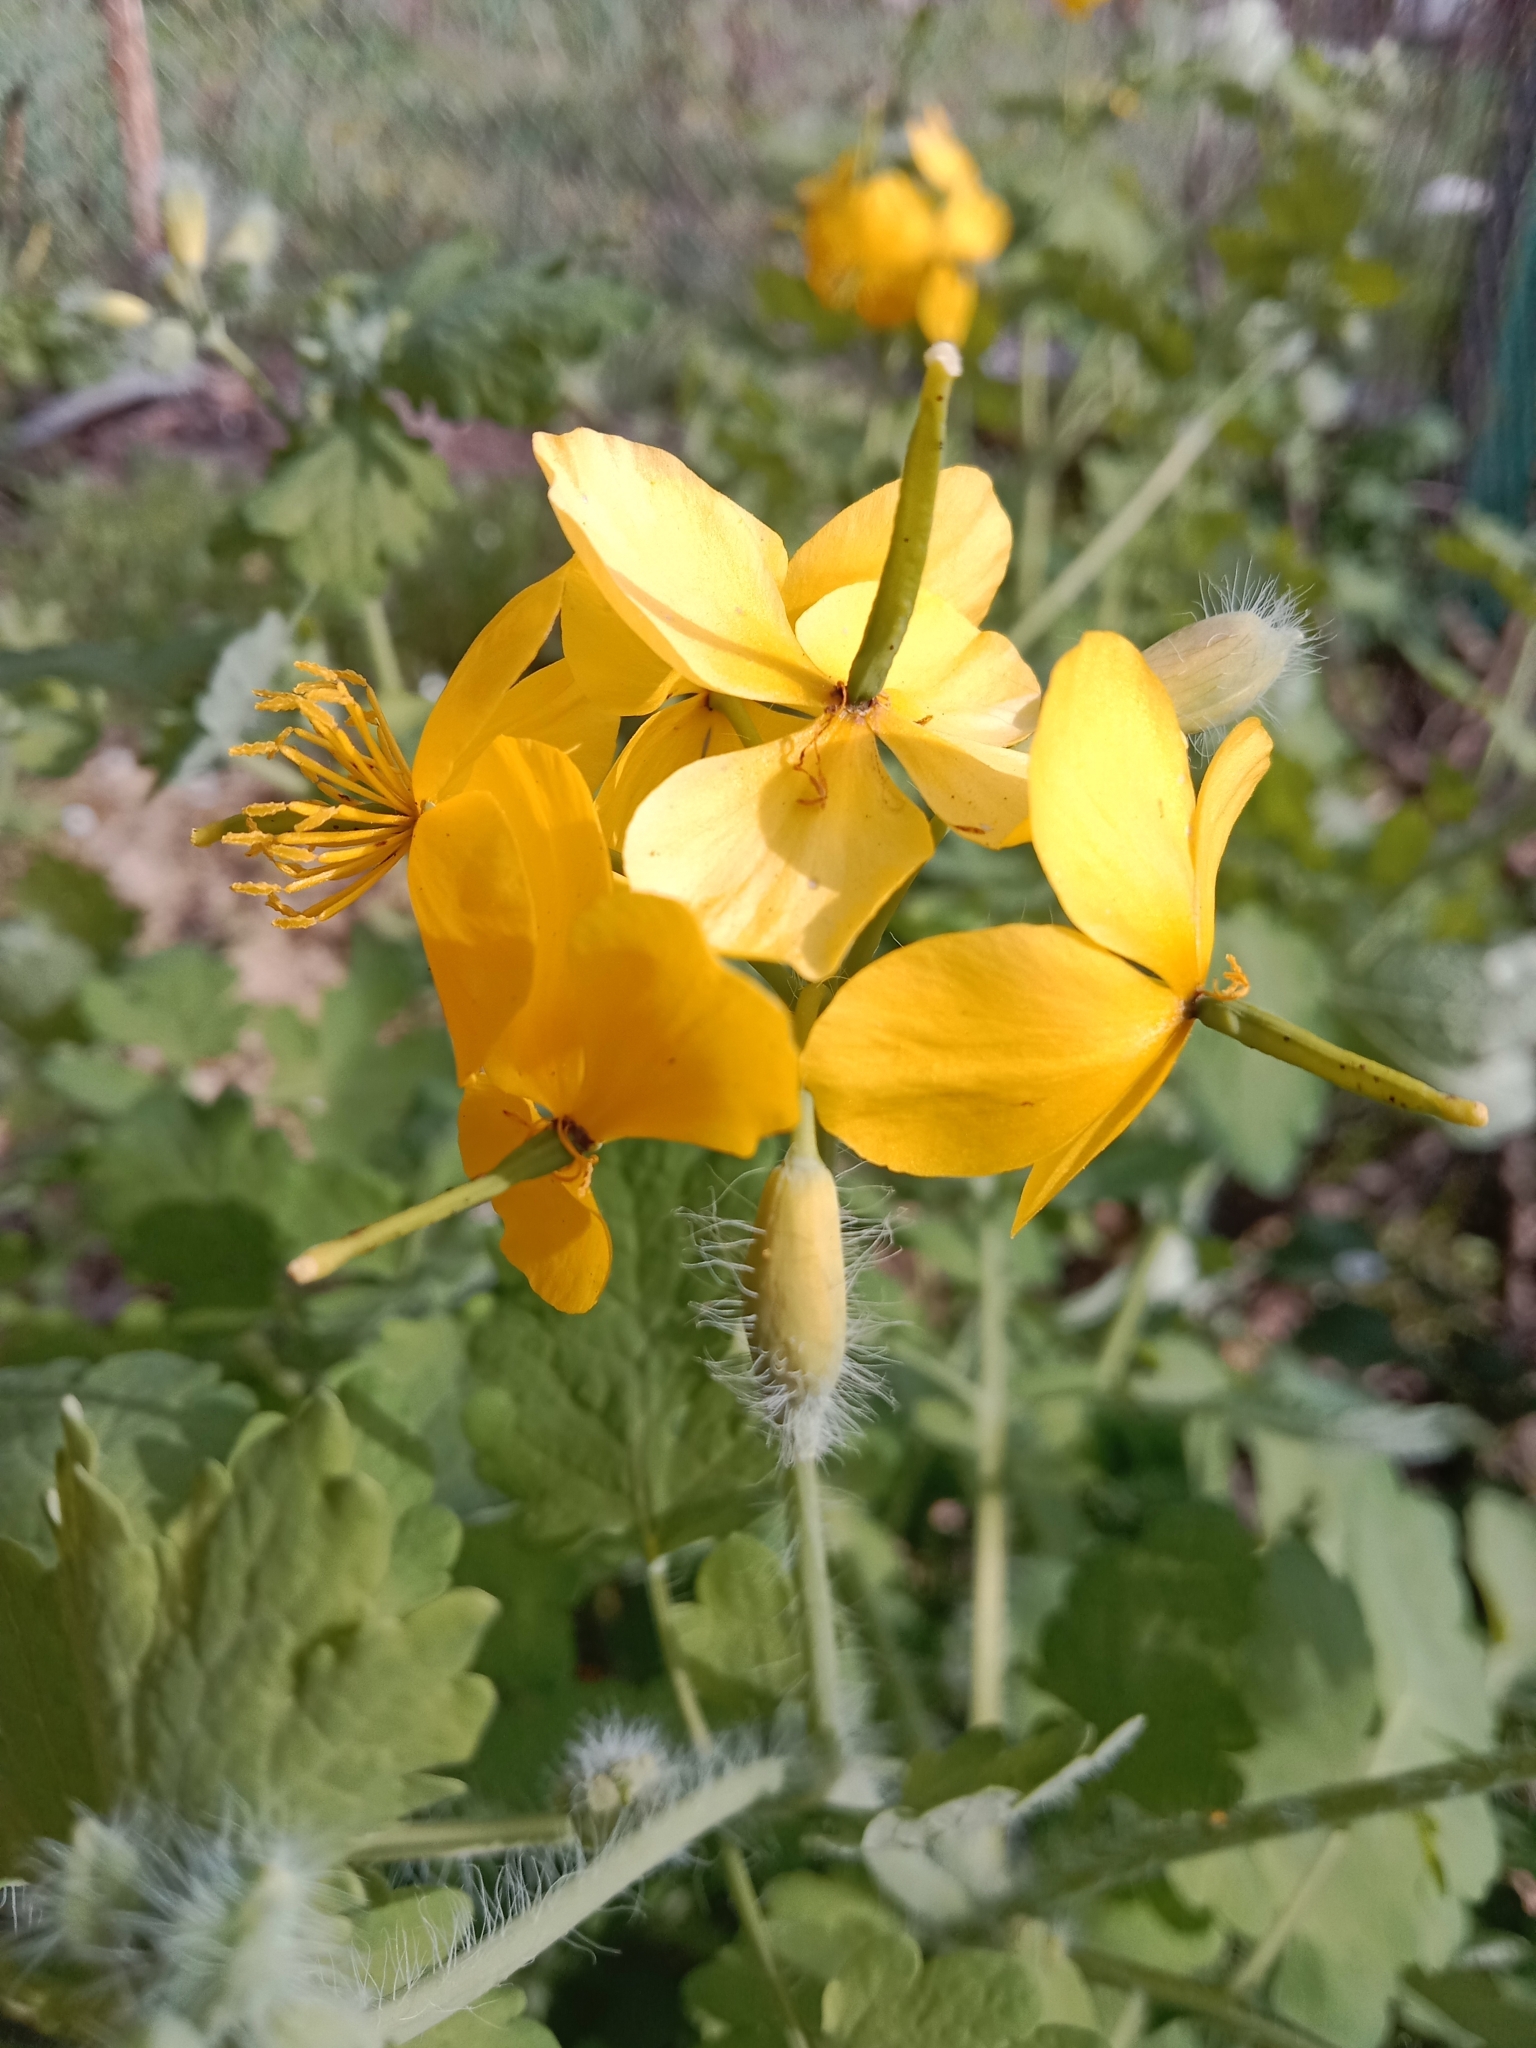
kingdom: Plantae
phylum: Tracheophyta
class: Magnoliopsida
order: Ranunculales
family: Papaveraceae
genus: Chelidonium
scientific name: Chelidonium majus
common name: Greater celandine
